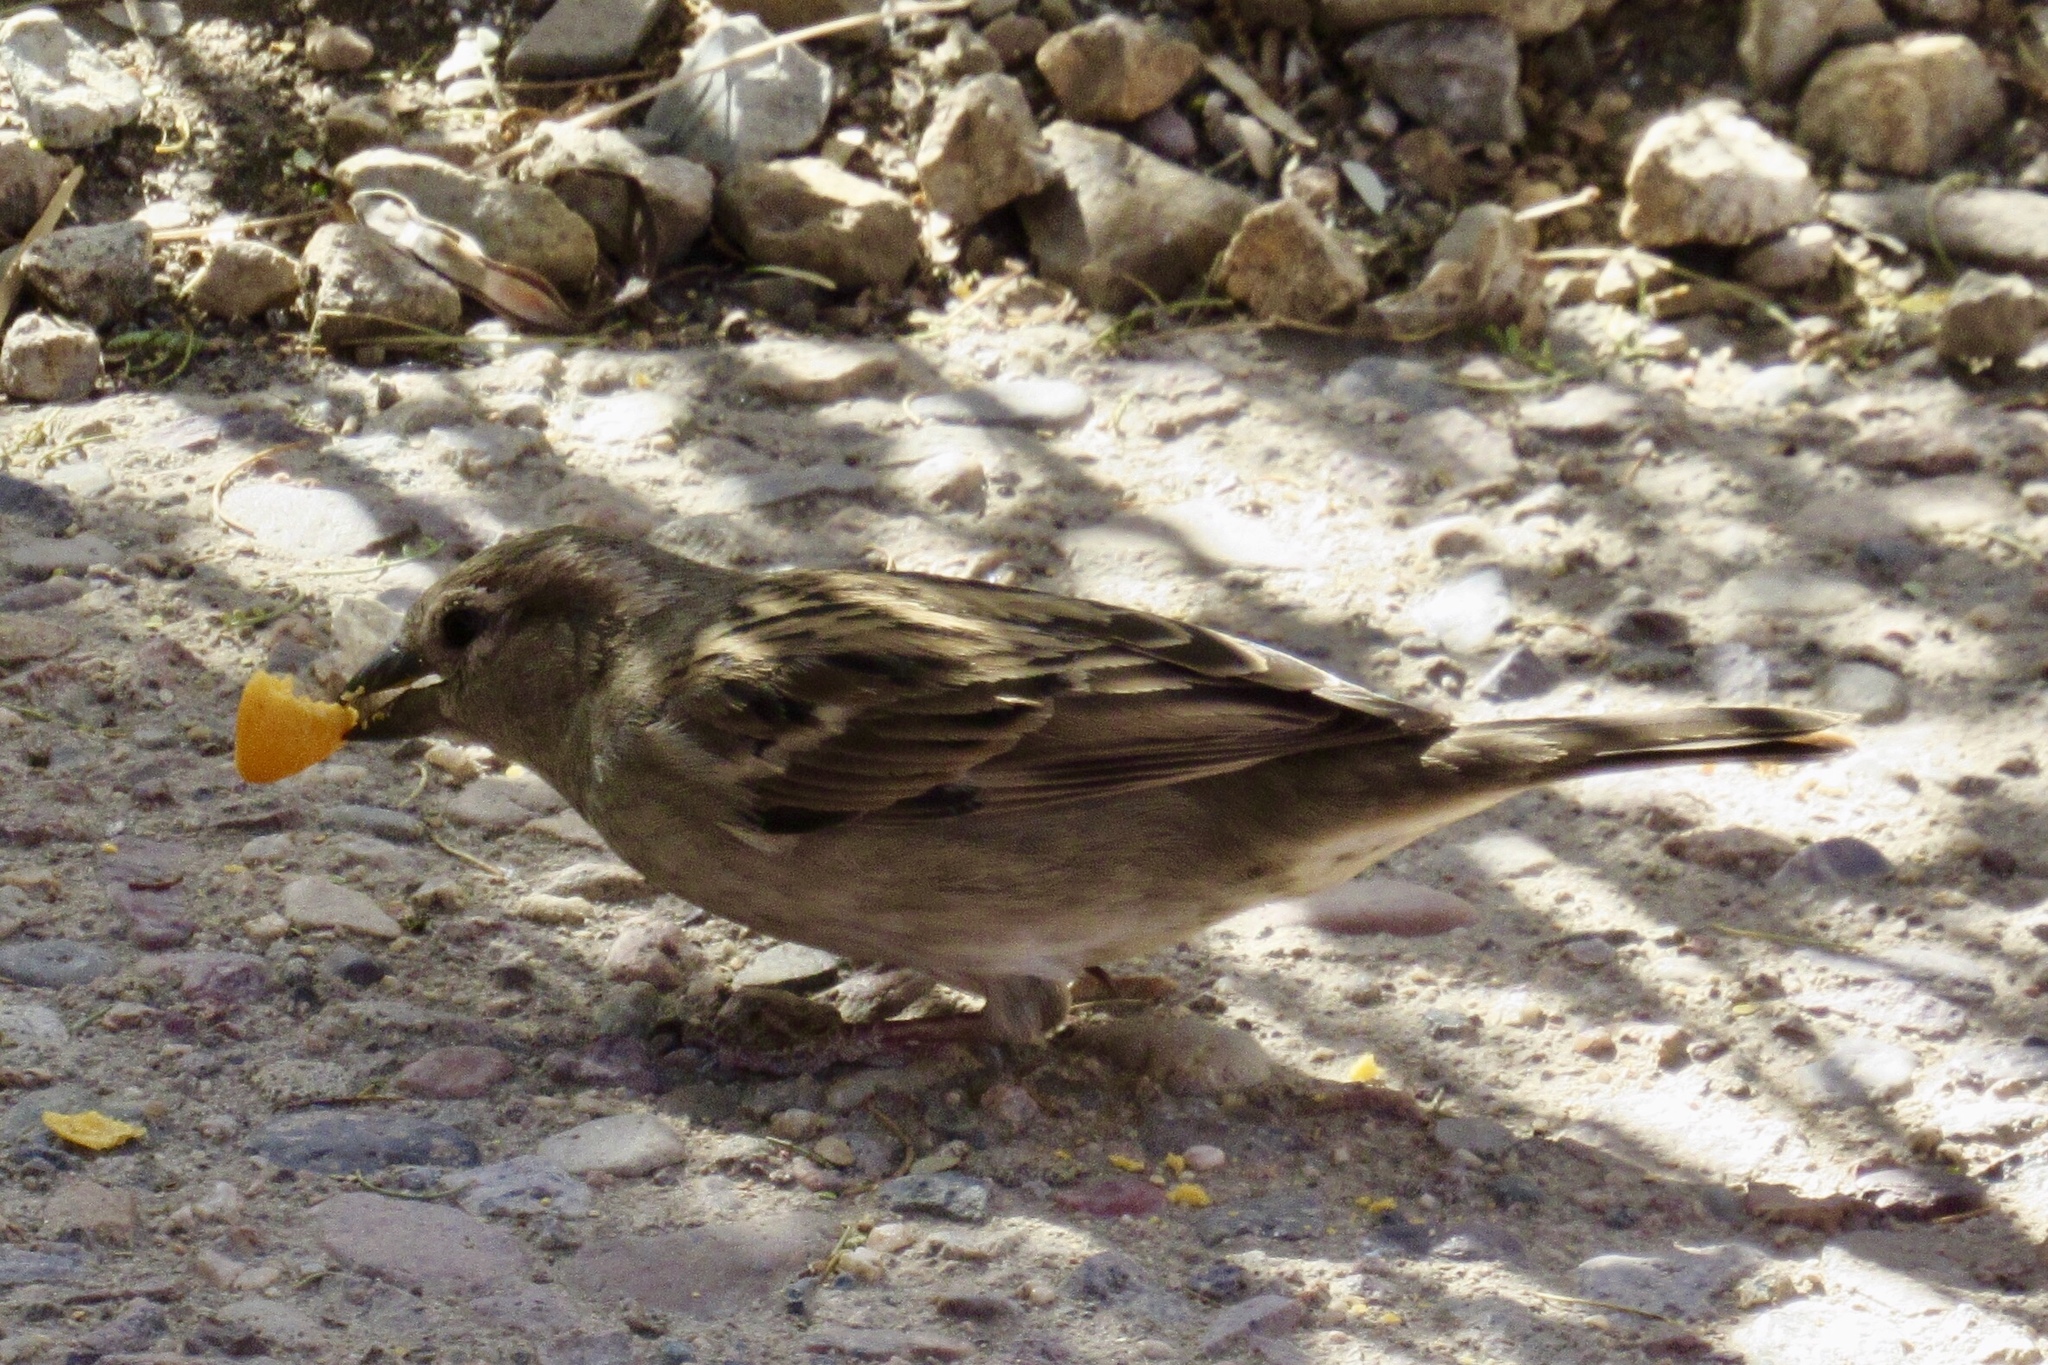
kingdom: Animalia
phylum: Chordata
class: Aves
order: Passeriformes
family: Passeridae
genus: Passer
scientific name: Passer domesticus
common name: House sparrow
